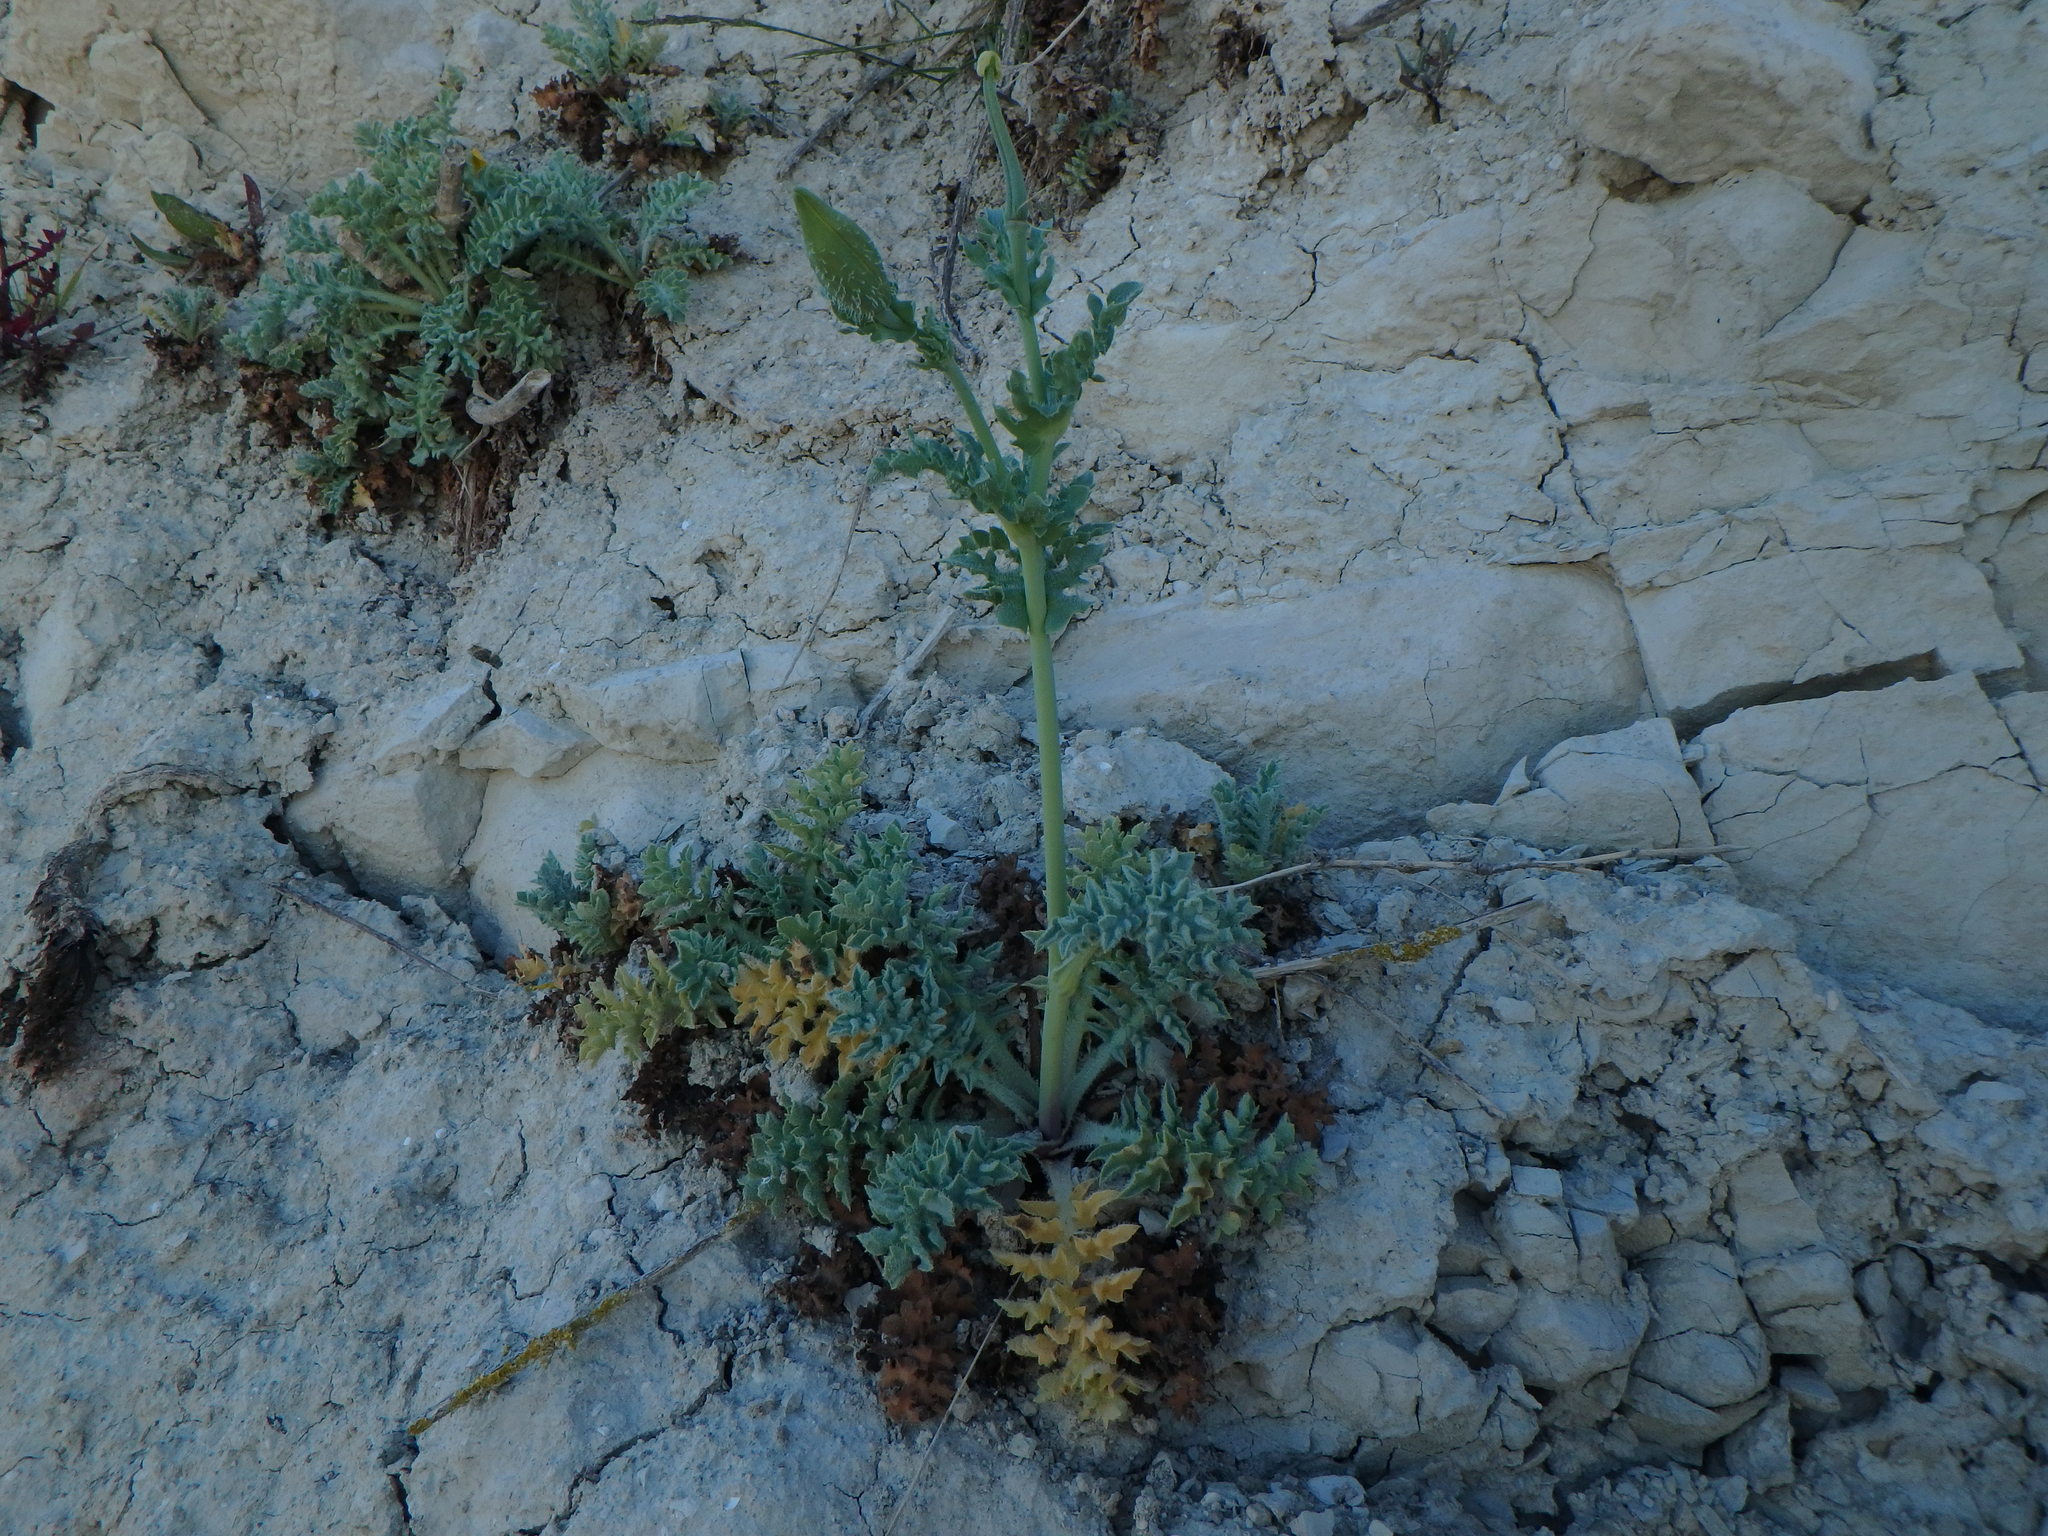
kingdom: Plantae
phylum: Tracheophyta
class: Magnoliopsida
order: Ranunculales
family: Papaveraceae
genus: Glaucium
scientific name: Glaucium flavum
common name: Yellow horned-poppy
